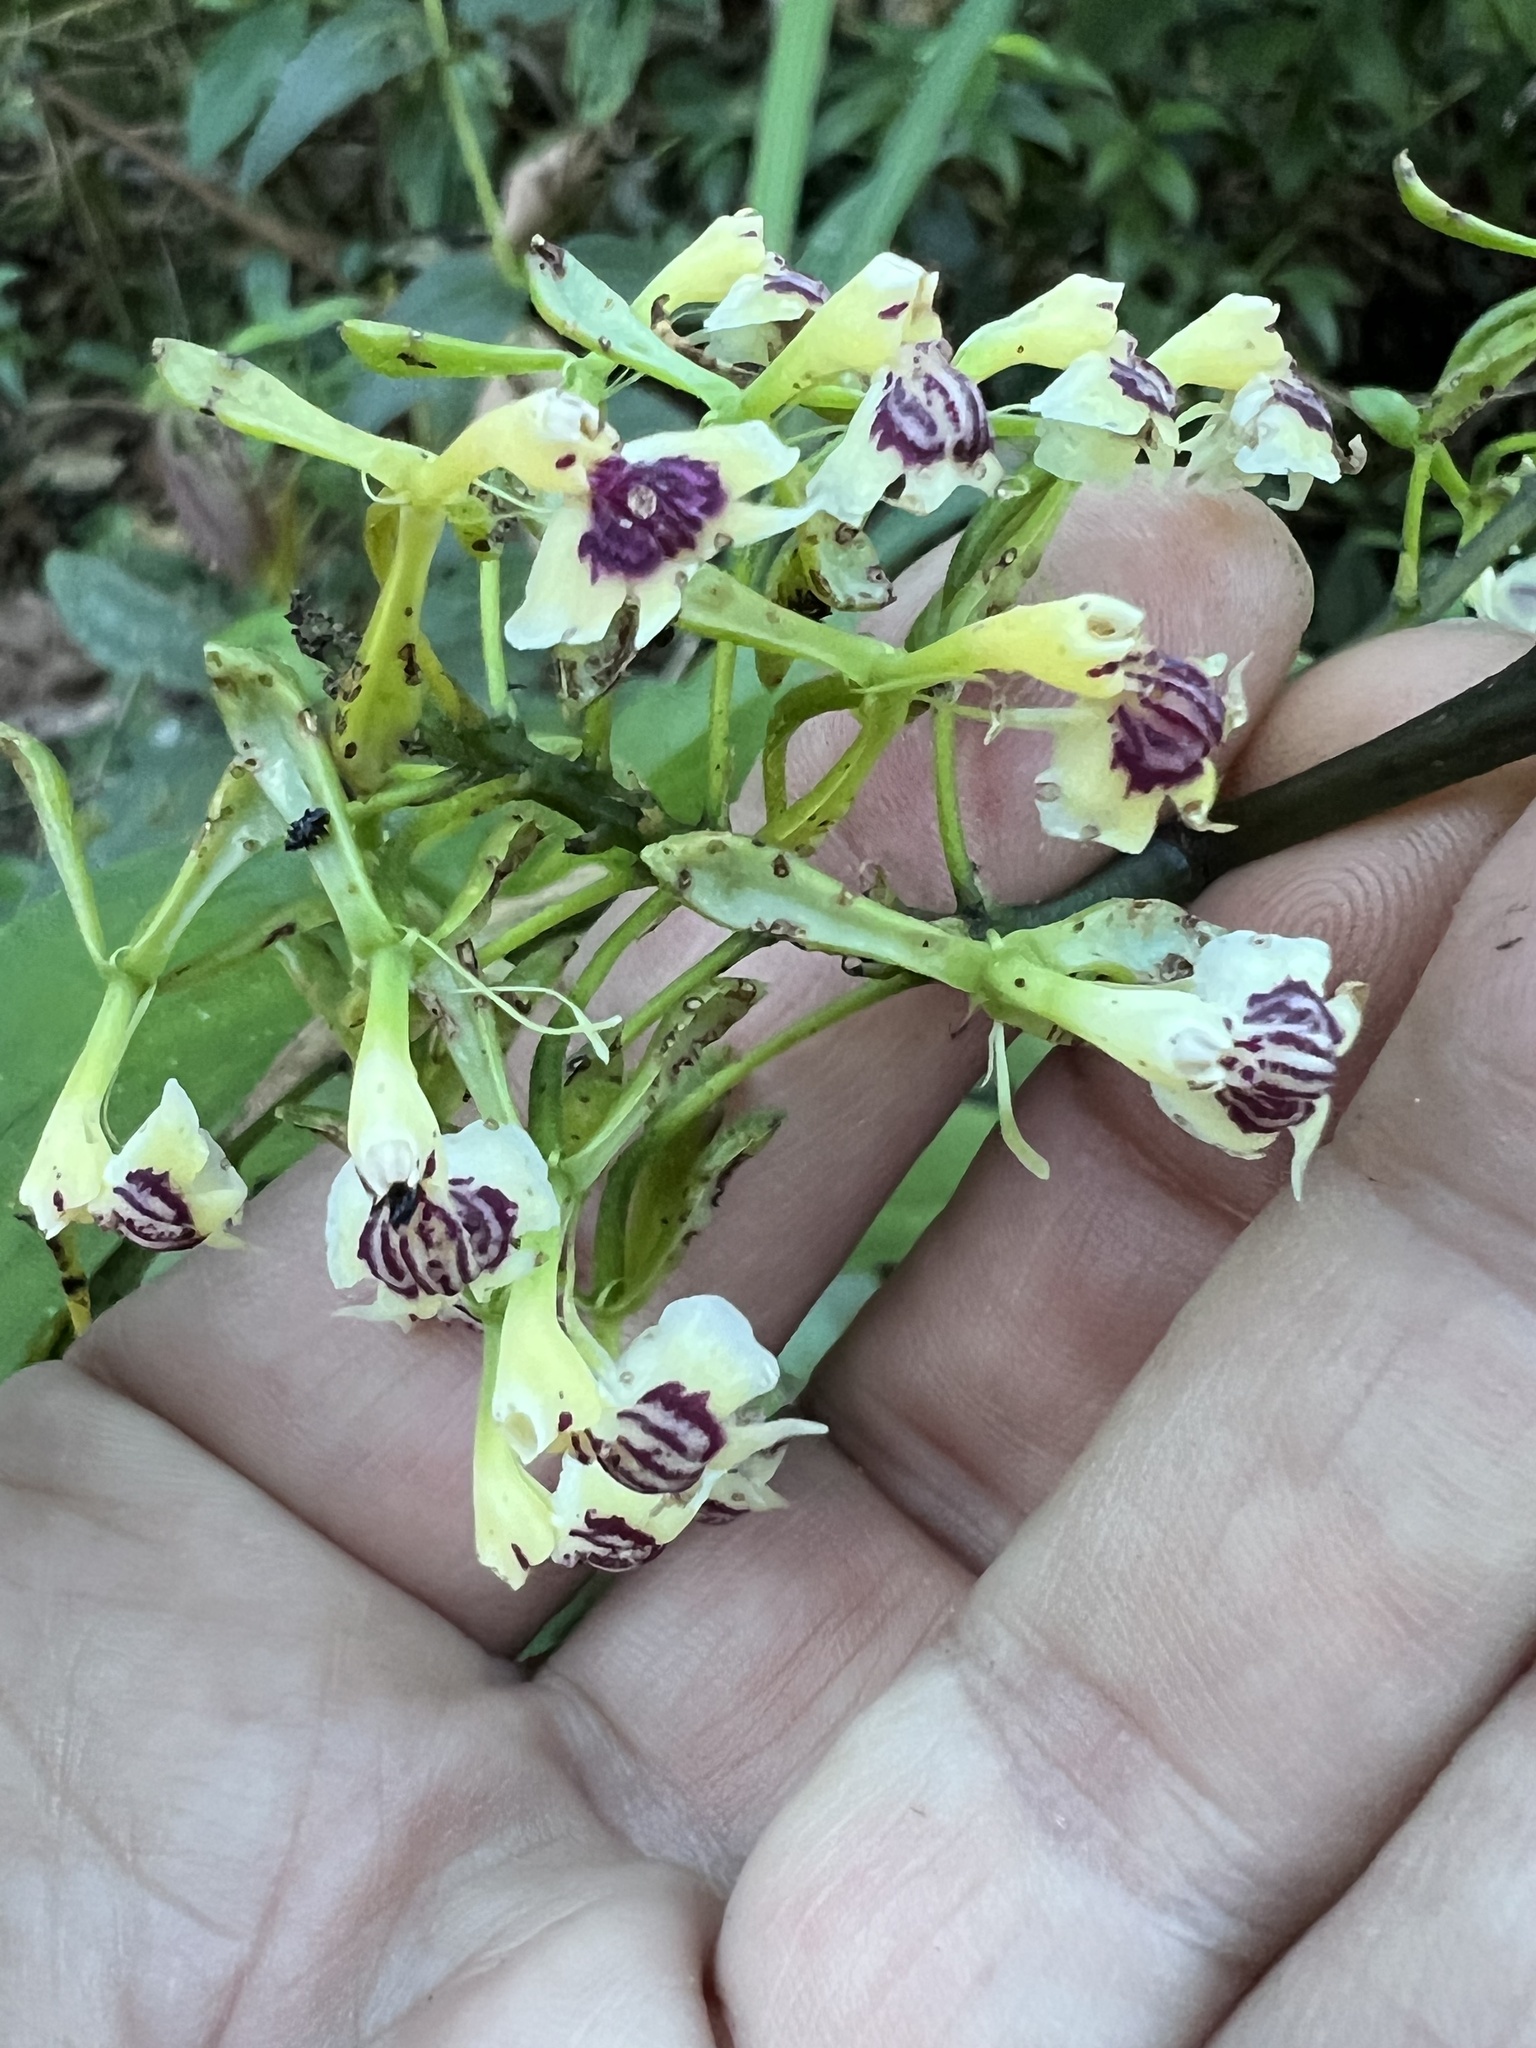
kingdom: Plantae
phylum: Tracheophyta
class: Liliopsida
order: Asparagales
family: Orchidaceae
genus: Epidendrum
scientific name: Epidendrum piliferum
